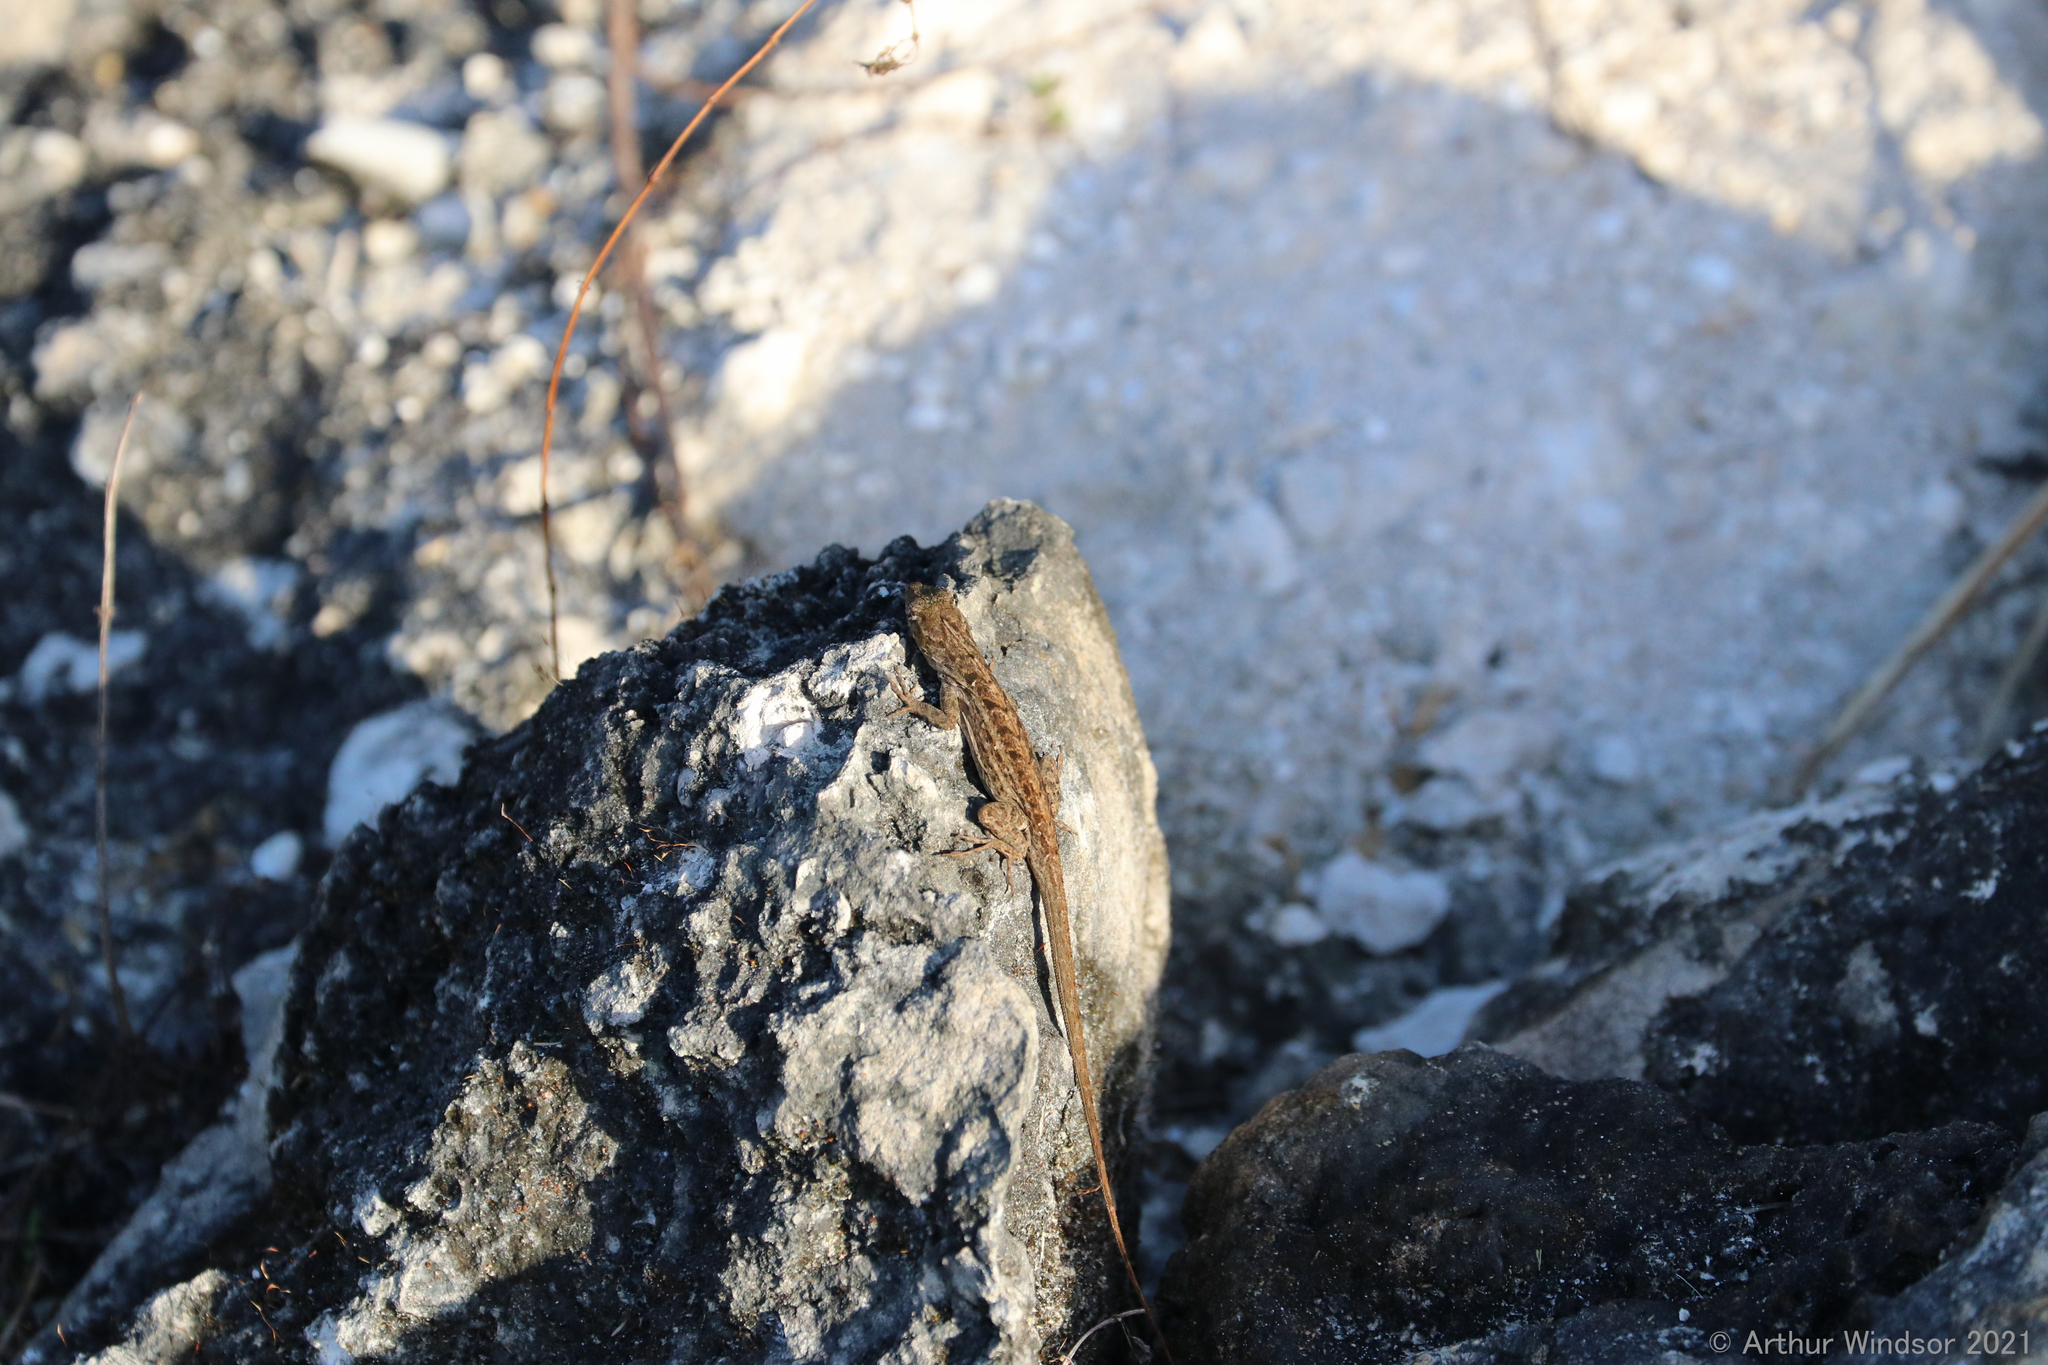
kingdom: Animalia
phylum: Chordata
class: Squamata
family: Dactyloidae
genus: Anolis
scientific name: Anolis sagrei
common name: Brown anole
